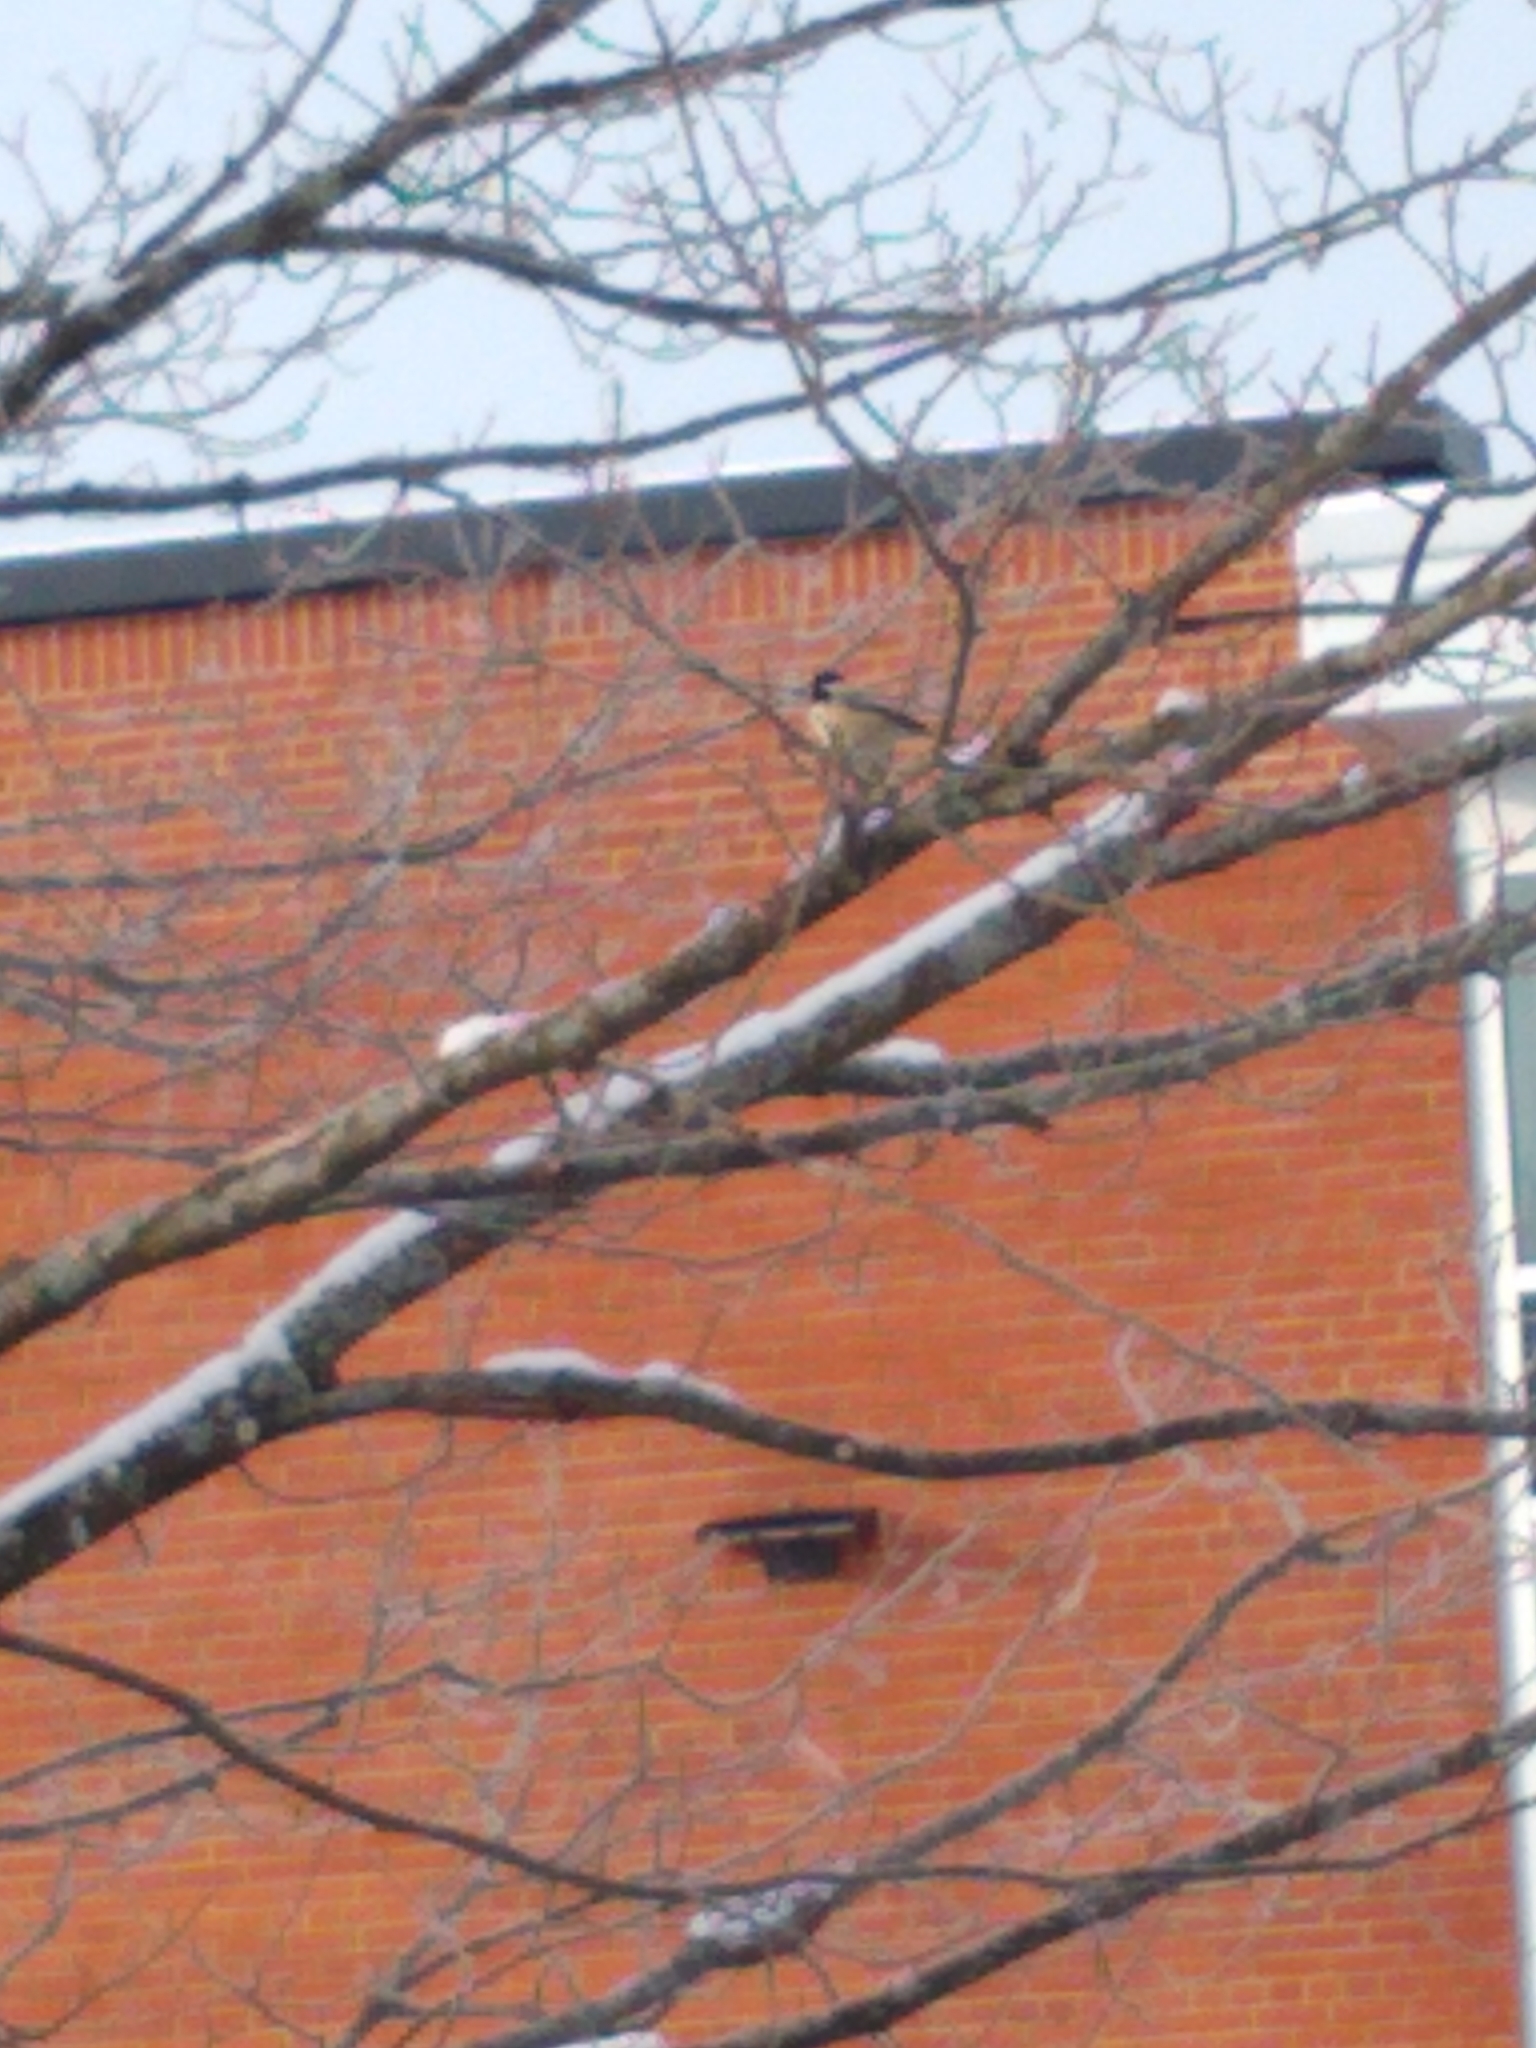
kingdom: Animalia
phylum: Chordata
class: Aves
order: Passeriformes
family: Paridae
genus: Poecile
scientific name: Poecile atricapillus
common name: Black-capped chickadee
